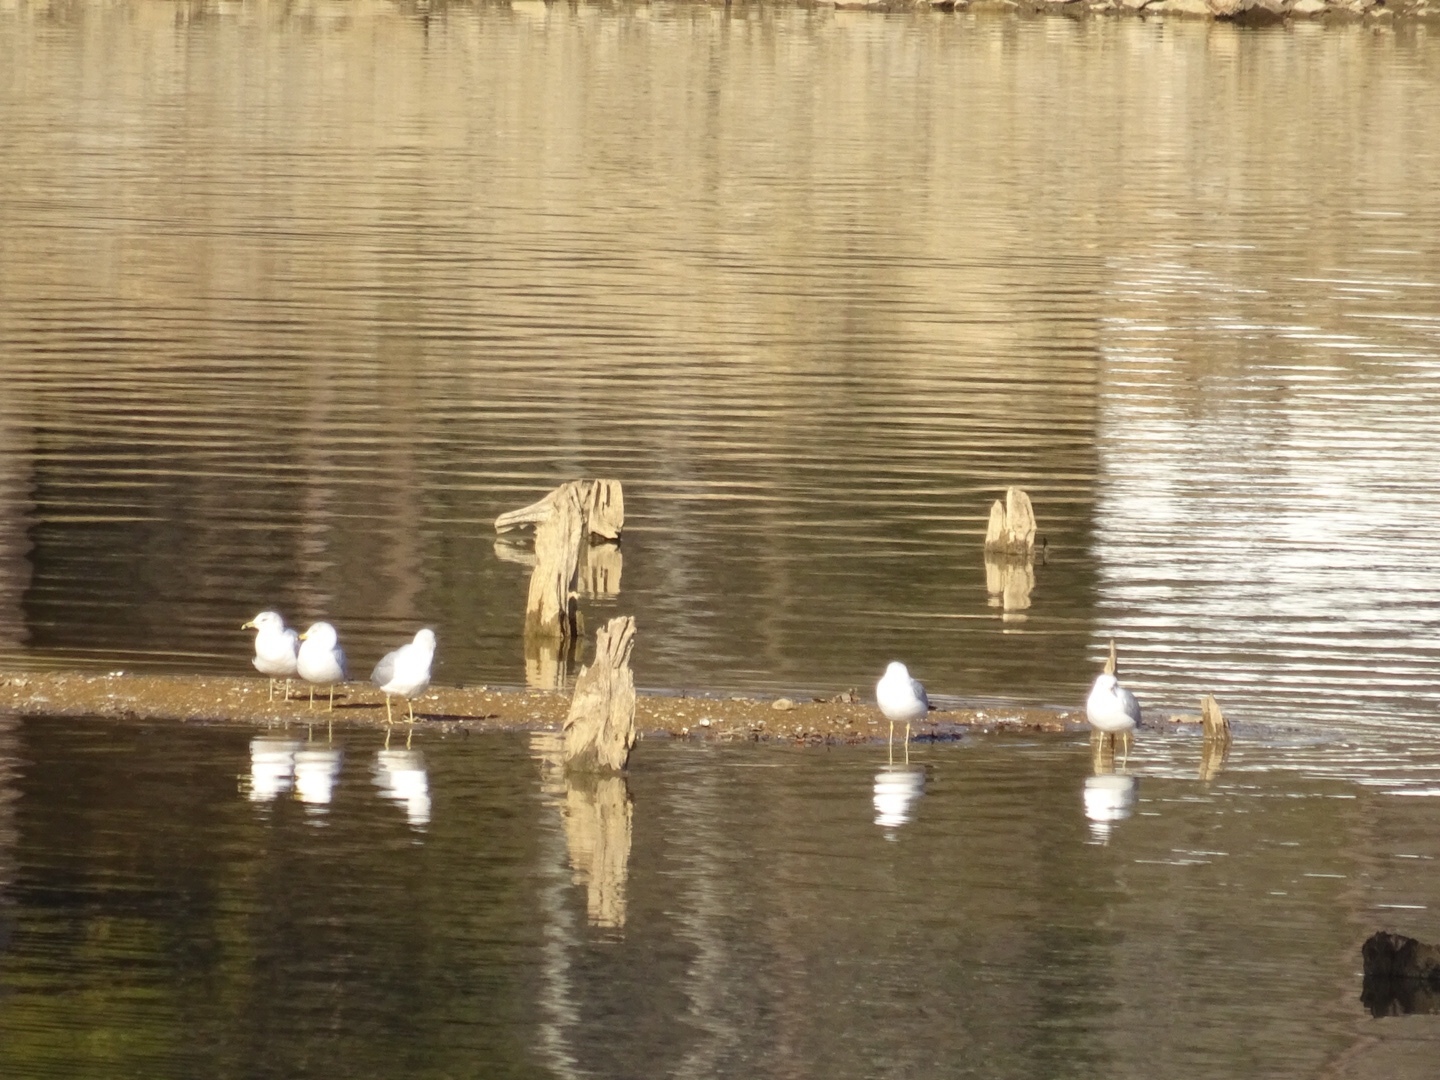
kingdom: Animalia
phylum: Chordata
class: Aves
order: Charadriiformes
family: Laridae
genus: Larus
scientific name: Larus delawarensis
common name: Ring-billed gull
